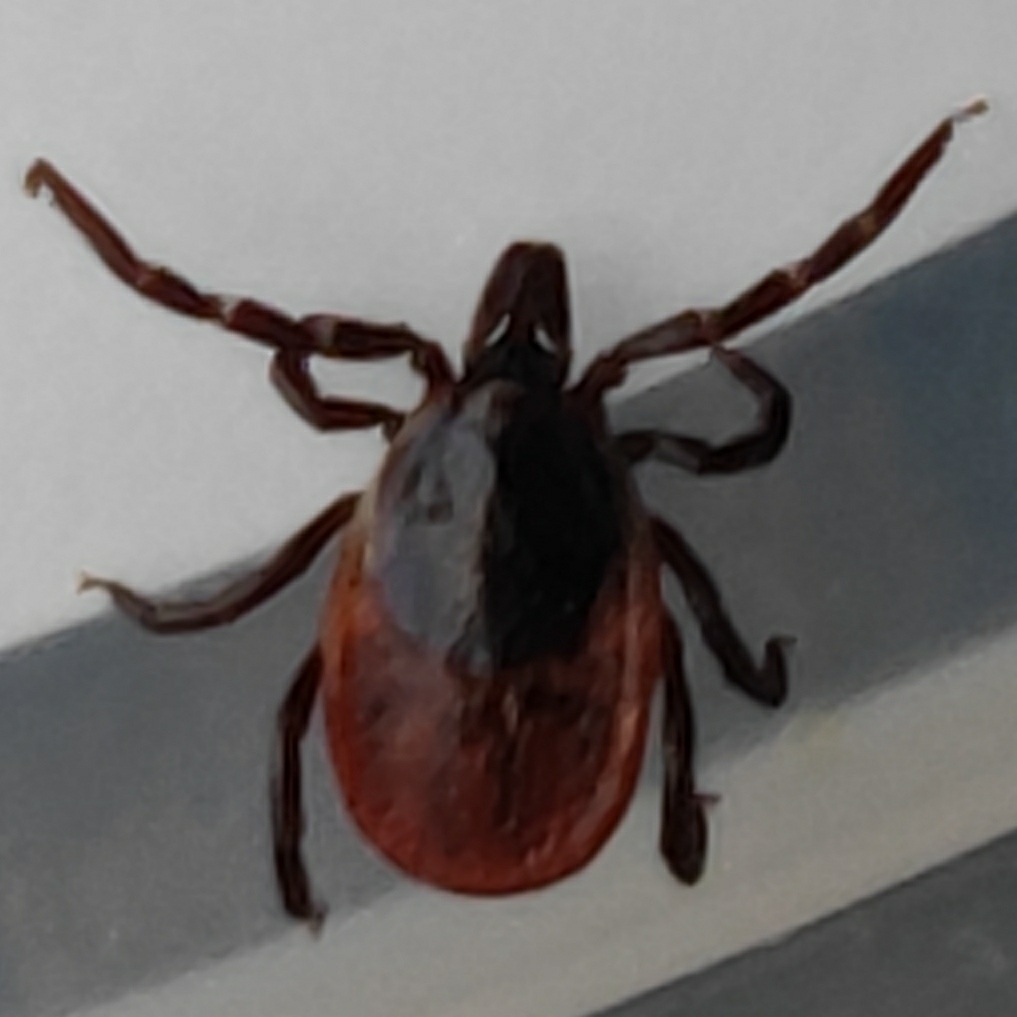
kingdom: Animalia
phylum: Arthropoda
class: Arachnida
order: Ixodida
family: Ixodidae
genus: Ixodes
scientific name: Ixodes ricinus
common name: Castor bean tick
